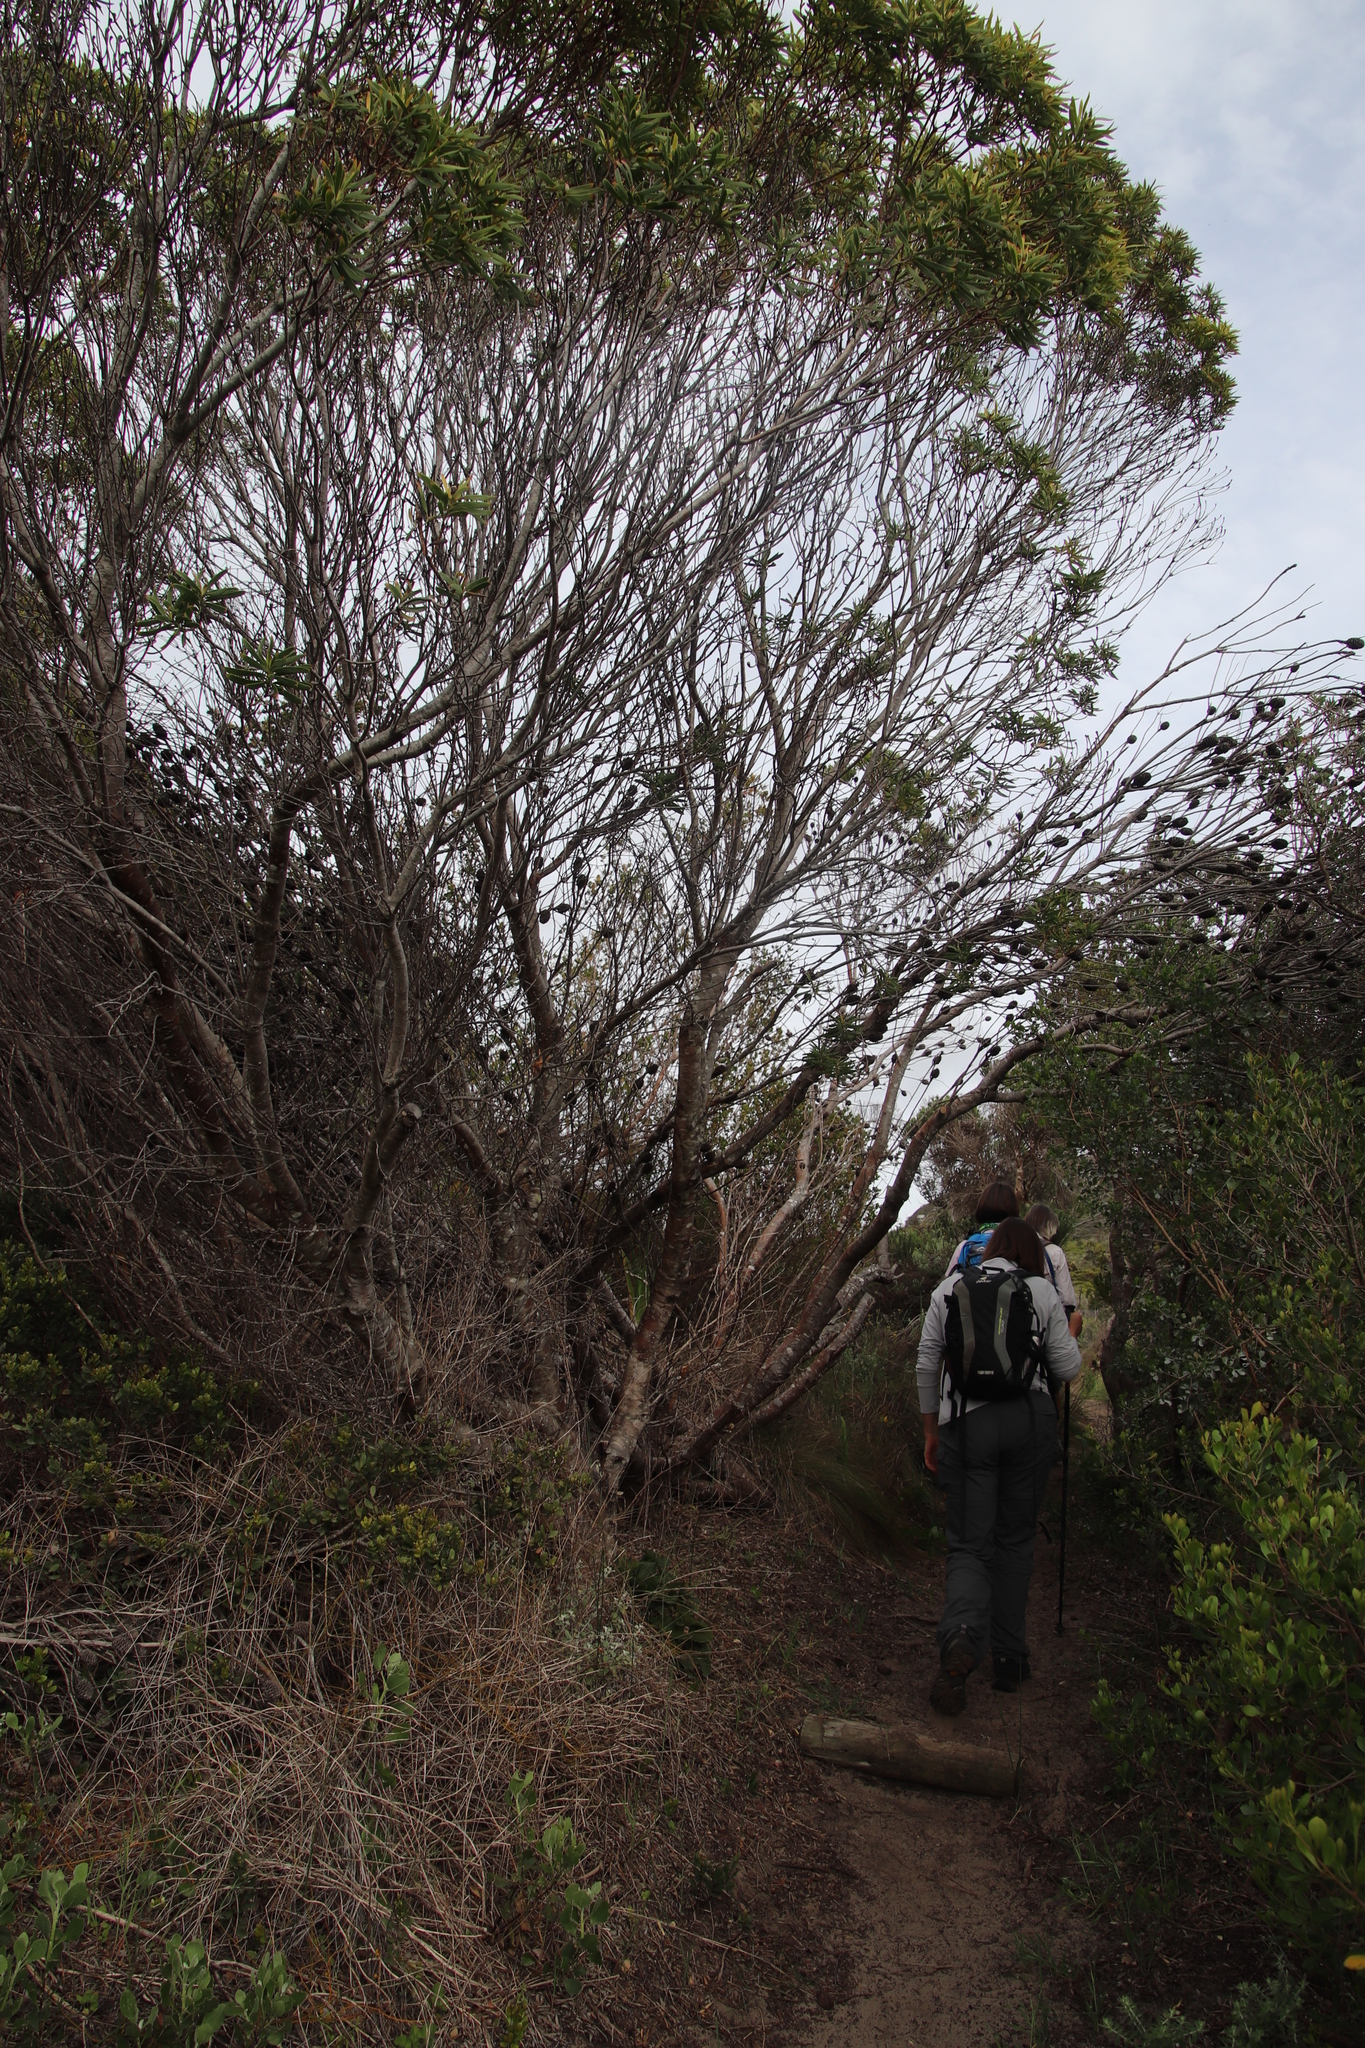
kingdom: Plantae
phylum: Tracheophyta
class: Magnoliopsida
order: Proteales
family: Proteaceae
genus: Leucadendron
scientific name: Leucadendron coniferum
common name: Dune conebush
